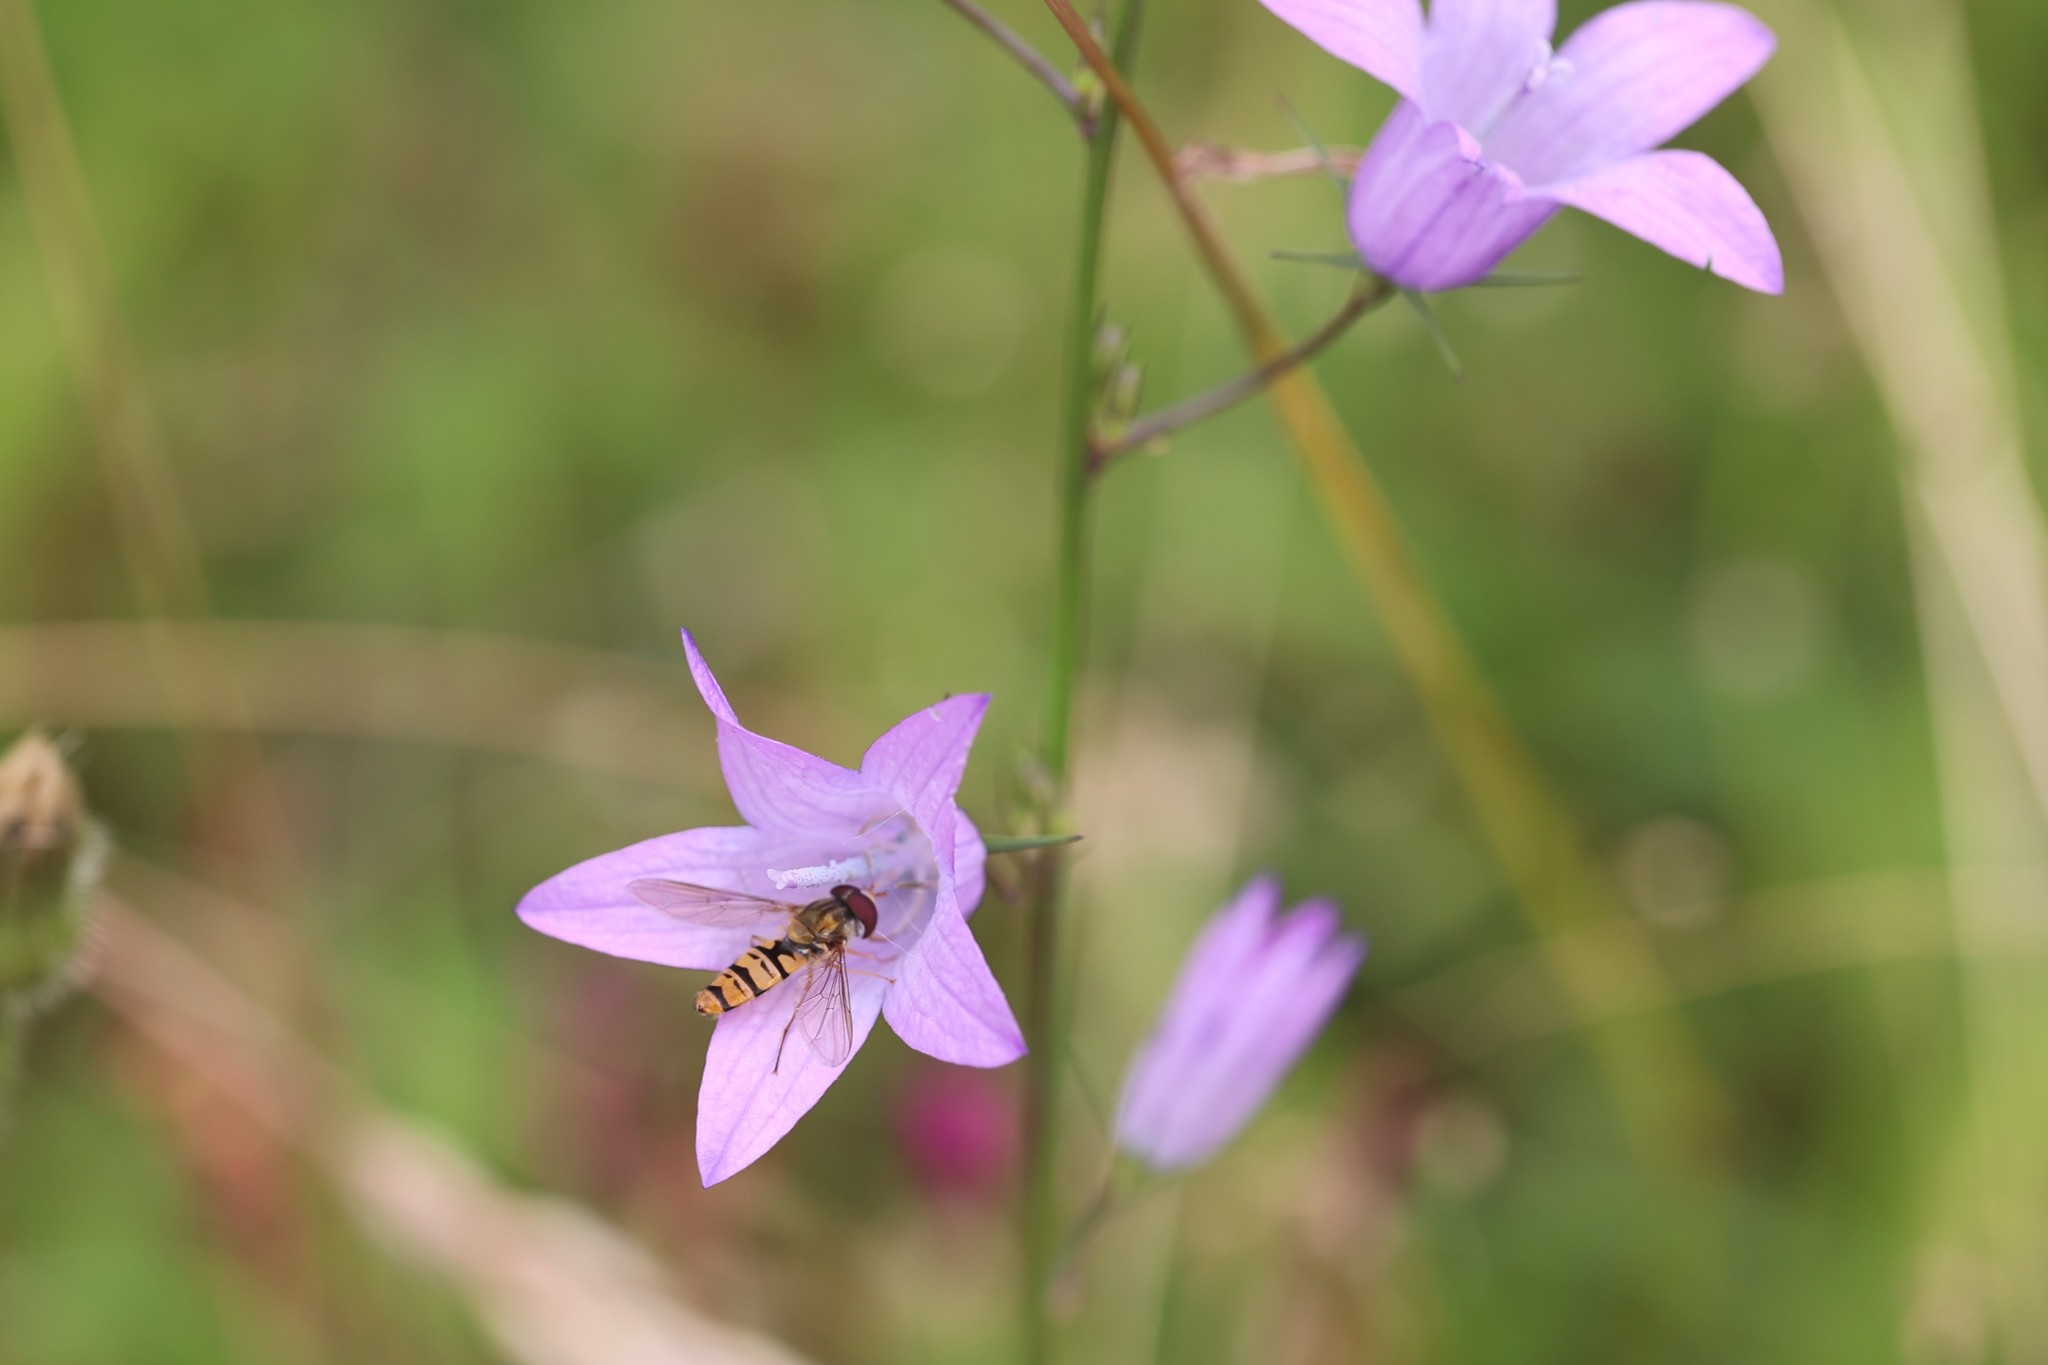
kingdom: Plantae
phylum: Tracheophyta
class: Magnoliopsida
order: Asterales
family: Campanulaceae
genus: Campanula
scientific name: Campanula rapunculus
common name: Rampion bellflower
